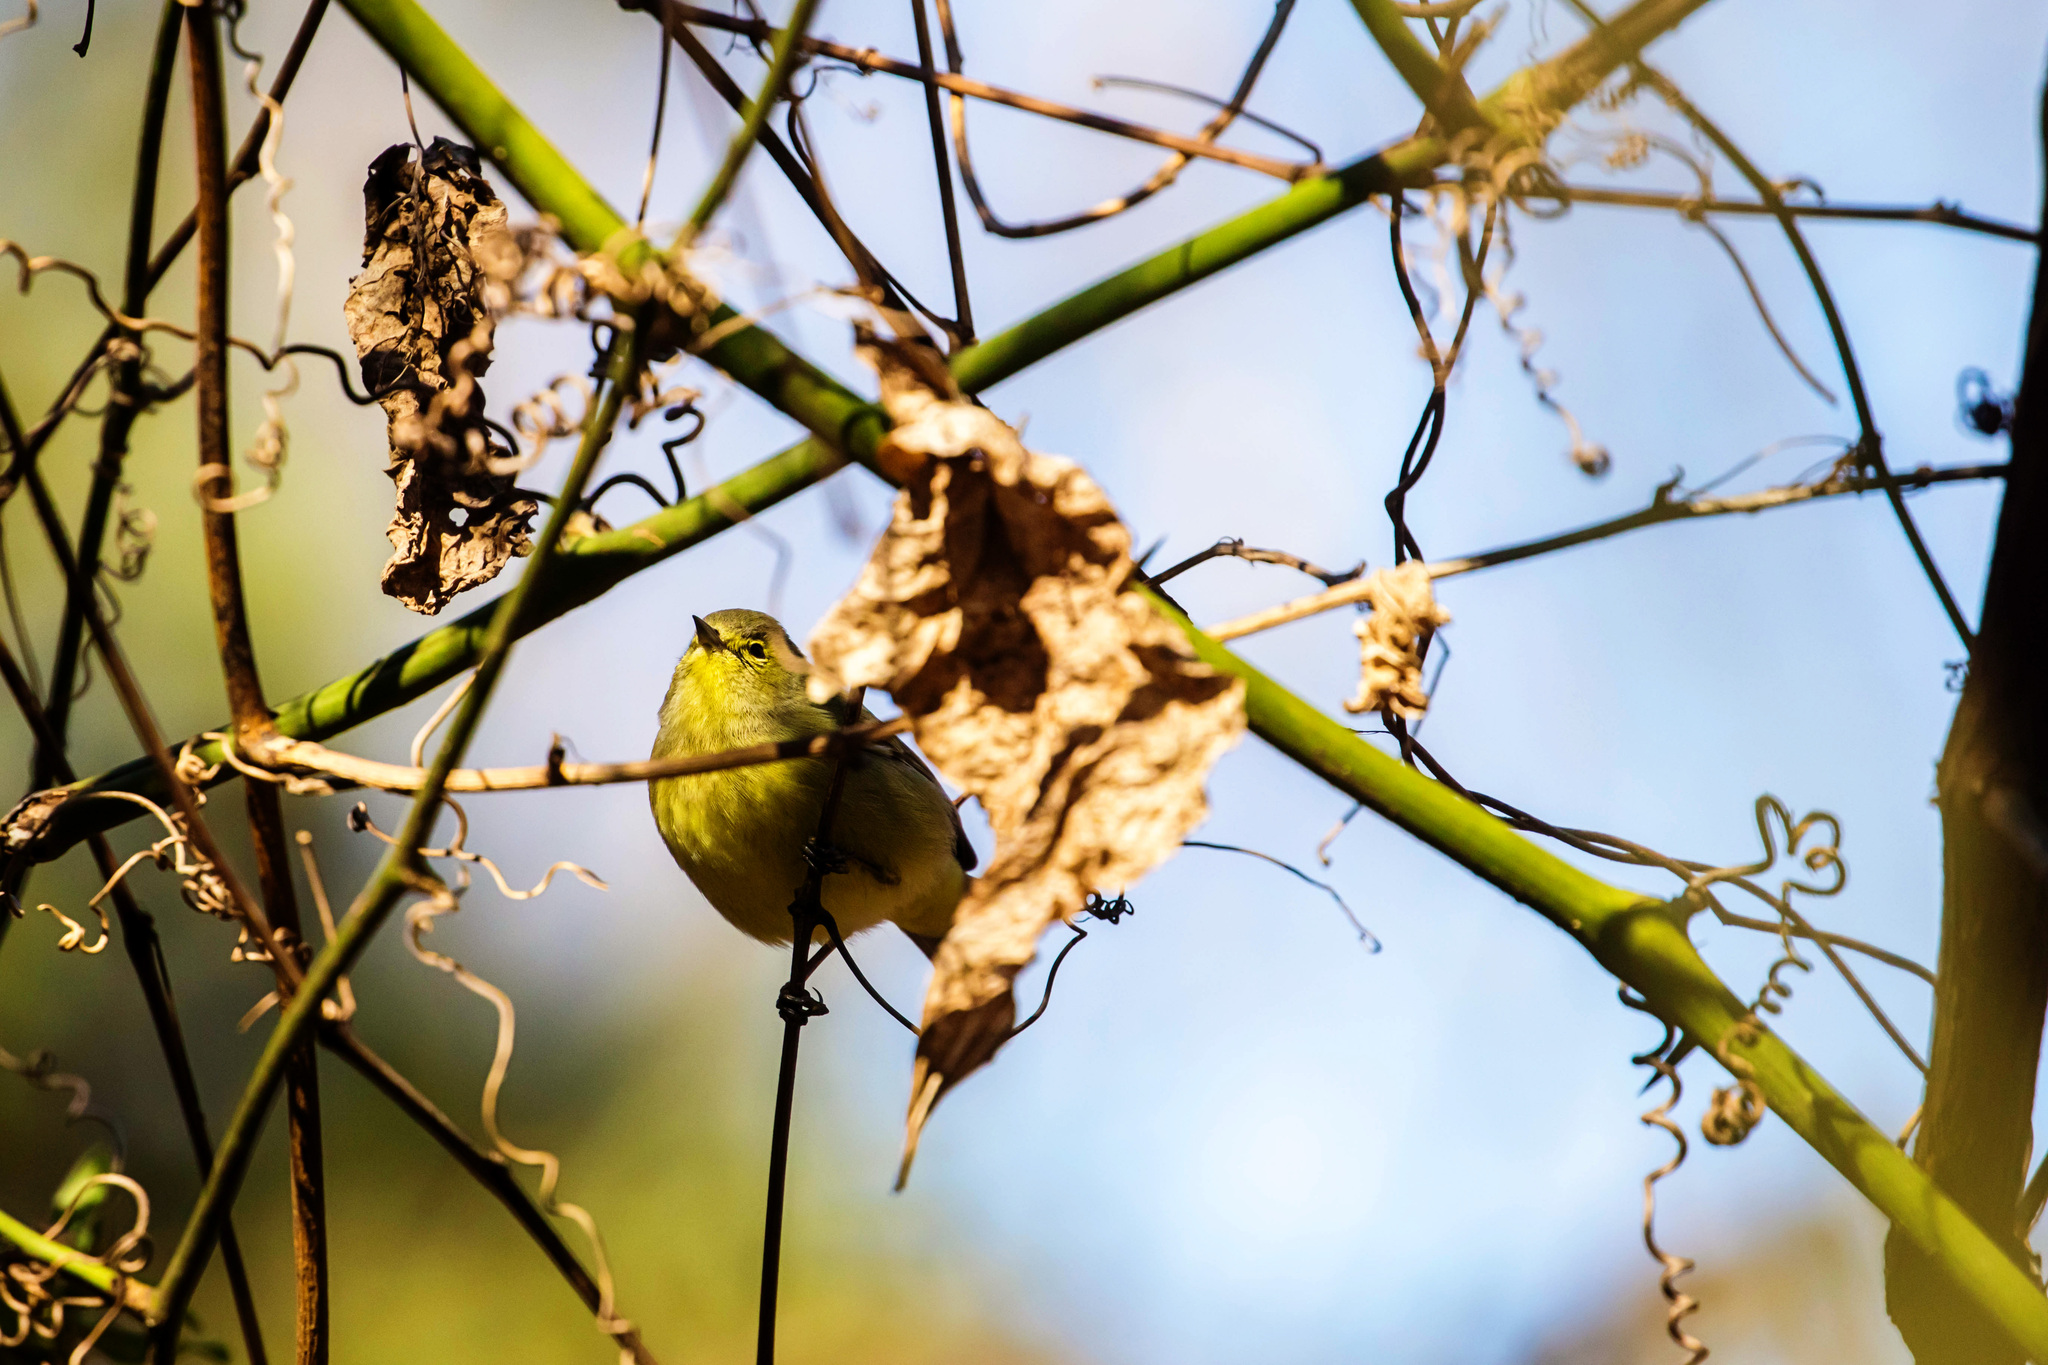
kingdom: Animalia
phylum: Chordata
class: Aves
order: Passeriformes
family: Parulidae
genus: Leiothlypis
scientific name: Leiothlypis celata
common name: Orange-crowned warbler
